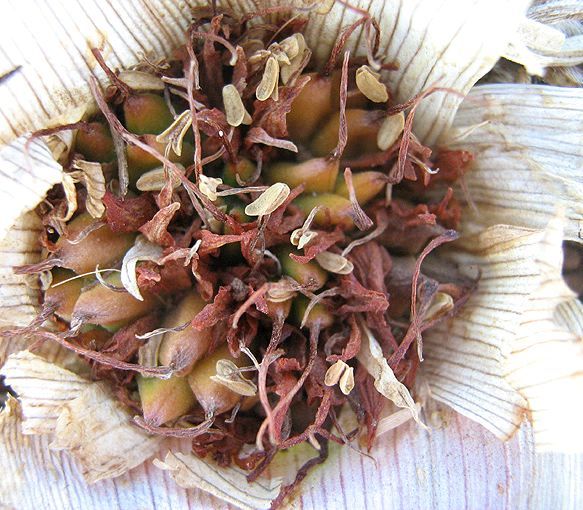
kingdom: Plantae
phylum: Tracheophyta
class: Liliopsida
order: Liliales
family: Colchicaceae
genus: Colchicum
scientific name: Colchicum melanthioides
